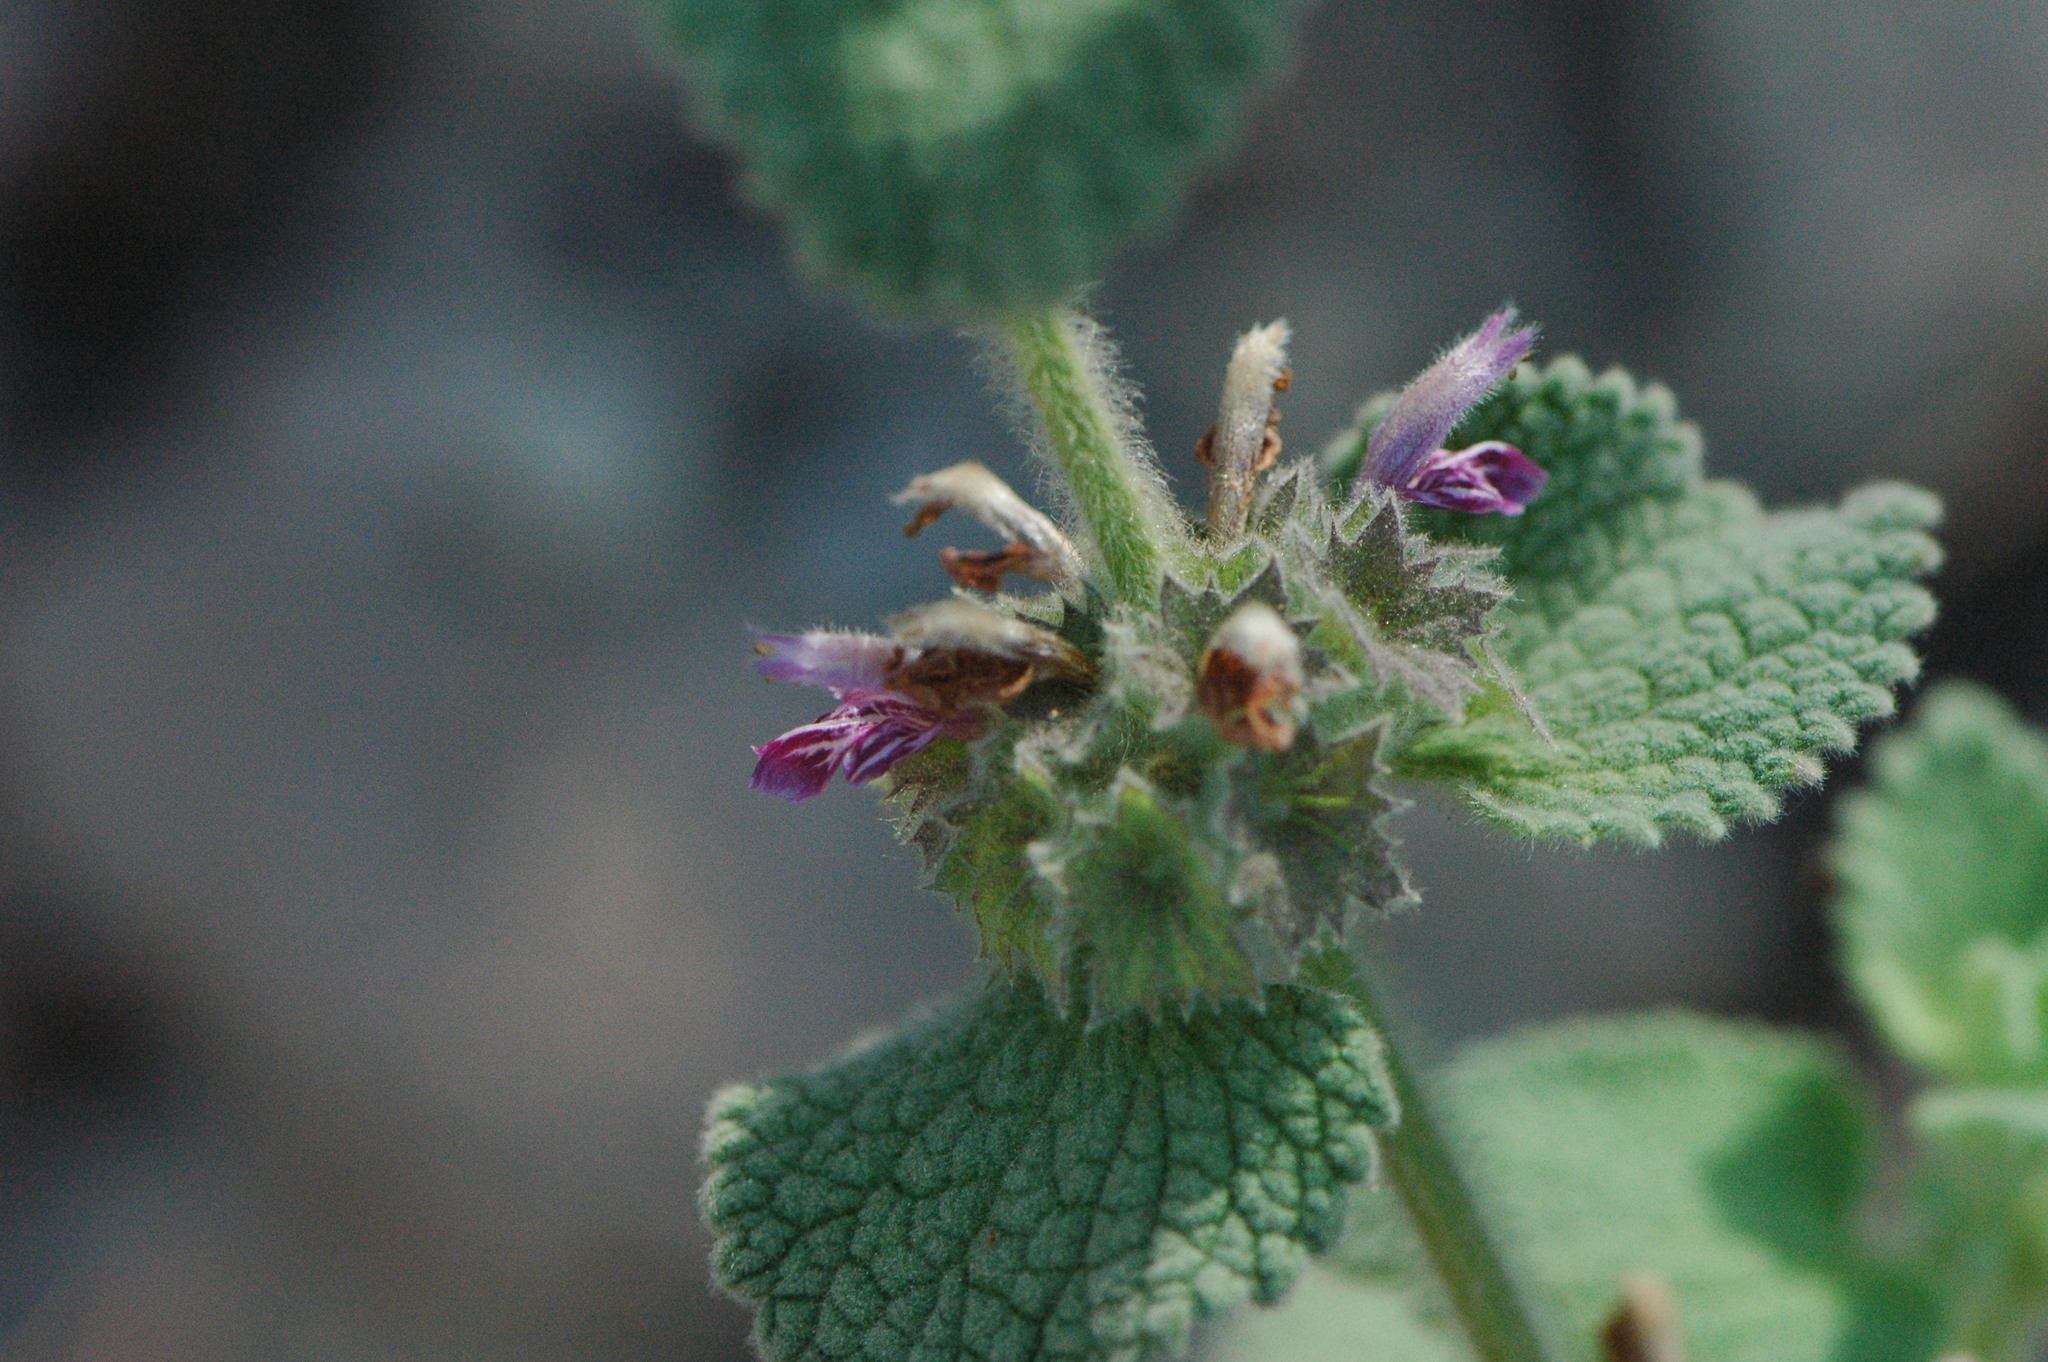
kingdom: Plantae
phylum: Tracheophyta
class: Magnoliopsida
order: Lamiales
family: Lamiaceae
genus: Pseudodictamnus
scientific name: Pseudodictamnus hirsutus
